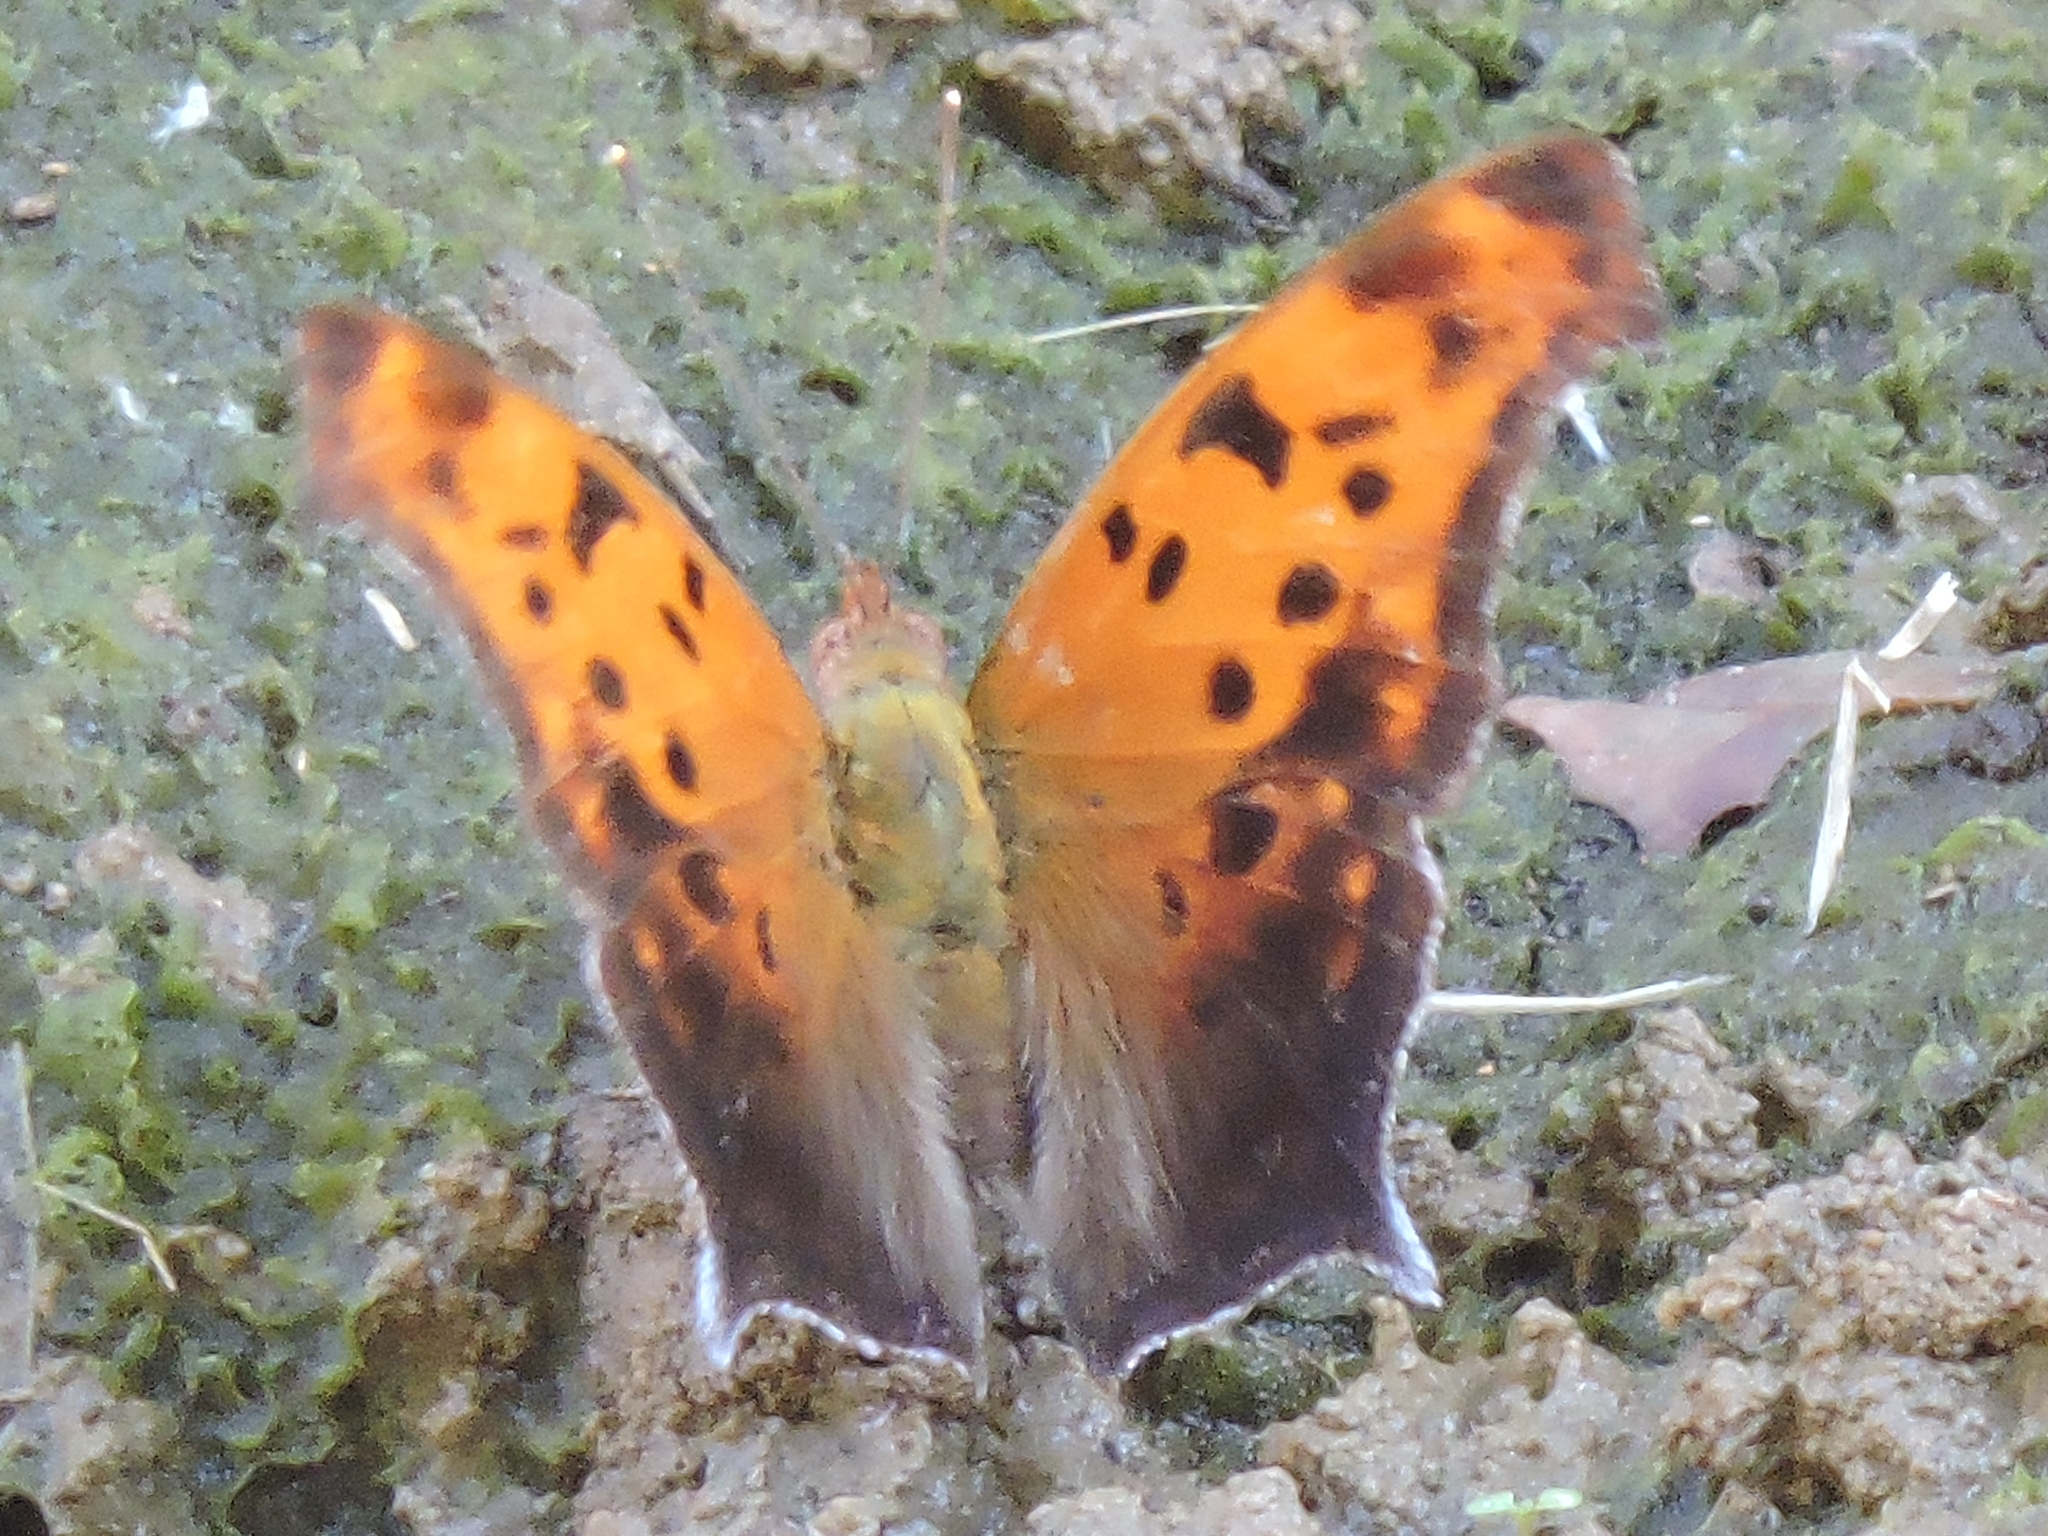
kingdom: Animalia
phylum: Arthropoda
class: Insecta
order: Lepidoptera
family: Nymphalidae
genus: Polygonia
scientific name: Polygonia interrogationis
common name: Question mark
